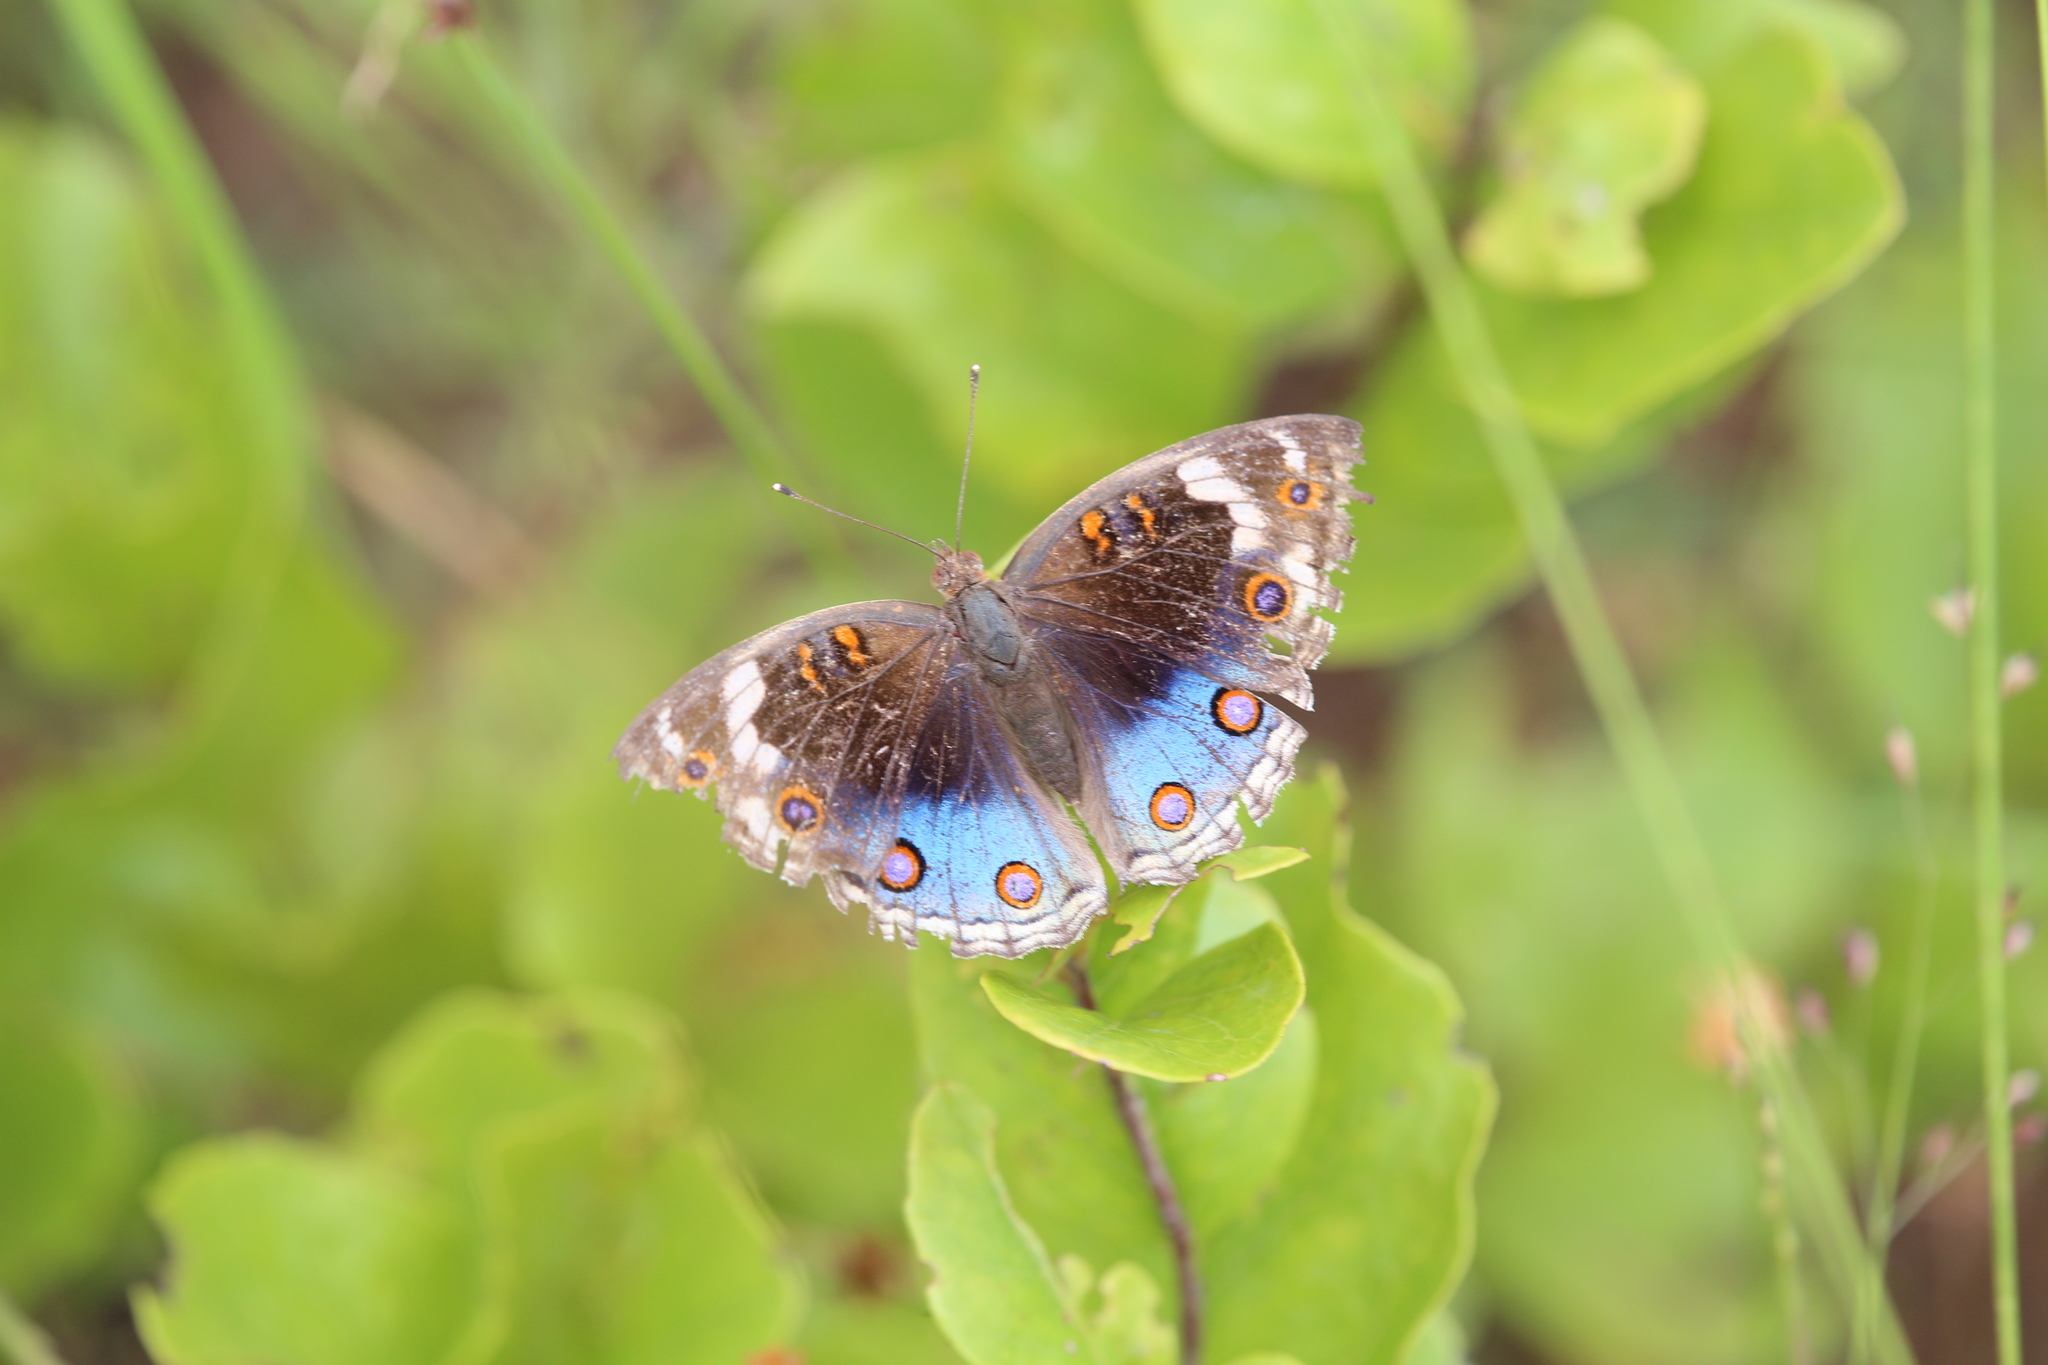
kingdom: Animalia
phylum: Arthropoda
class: Insecta
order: Lepidoptera
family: Nymphalidae
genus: Junonia
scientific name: Junonia orithya
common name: Blue pansy
